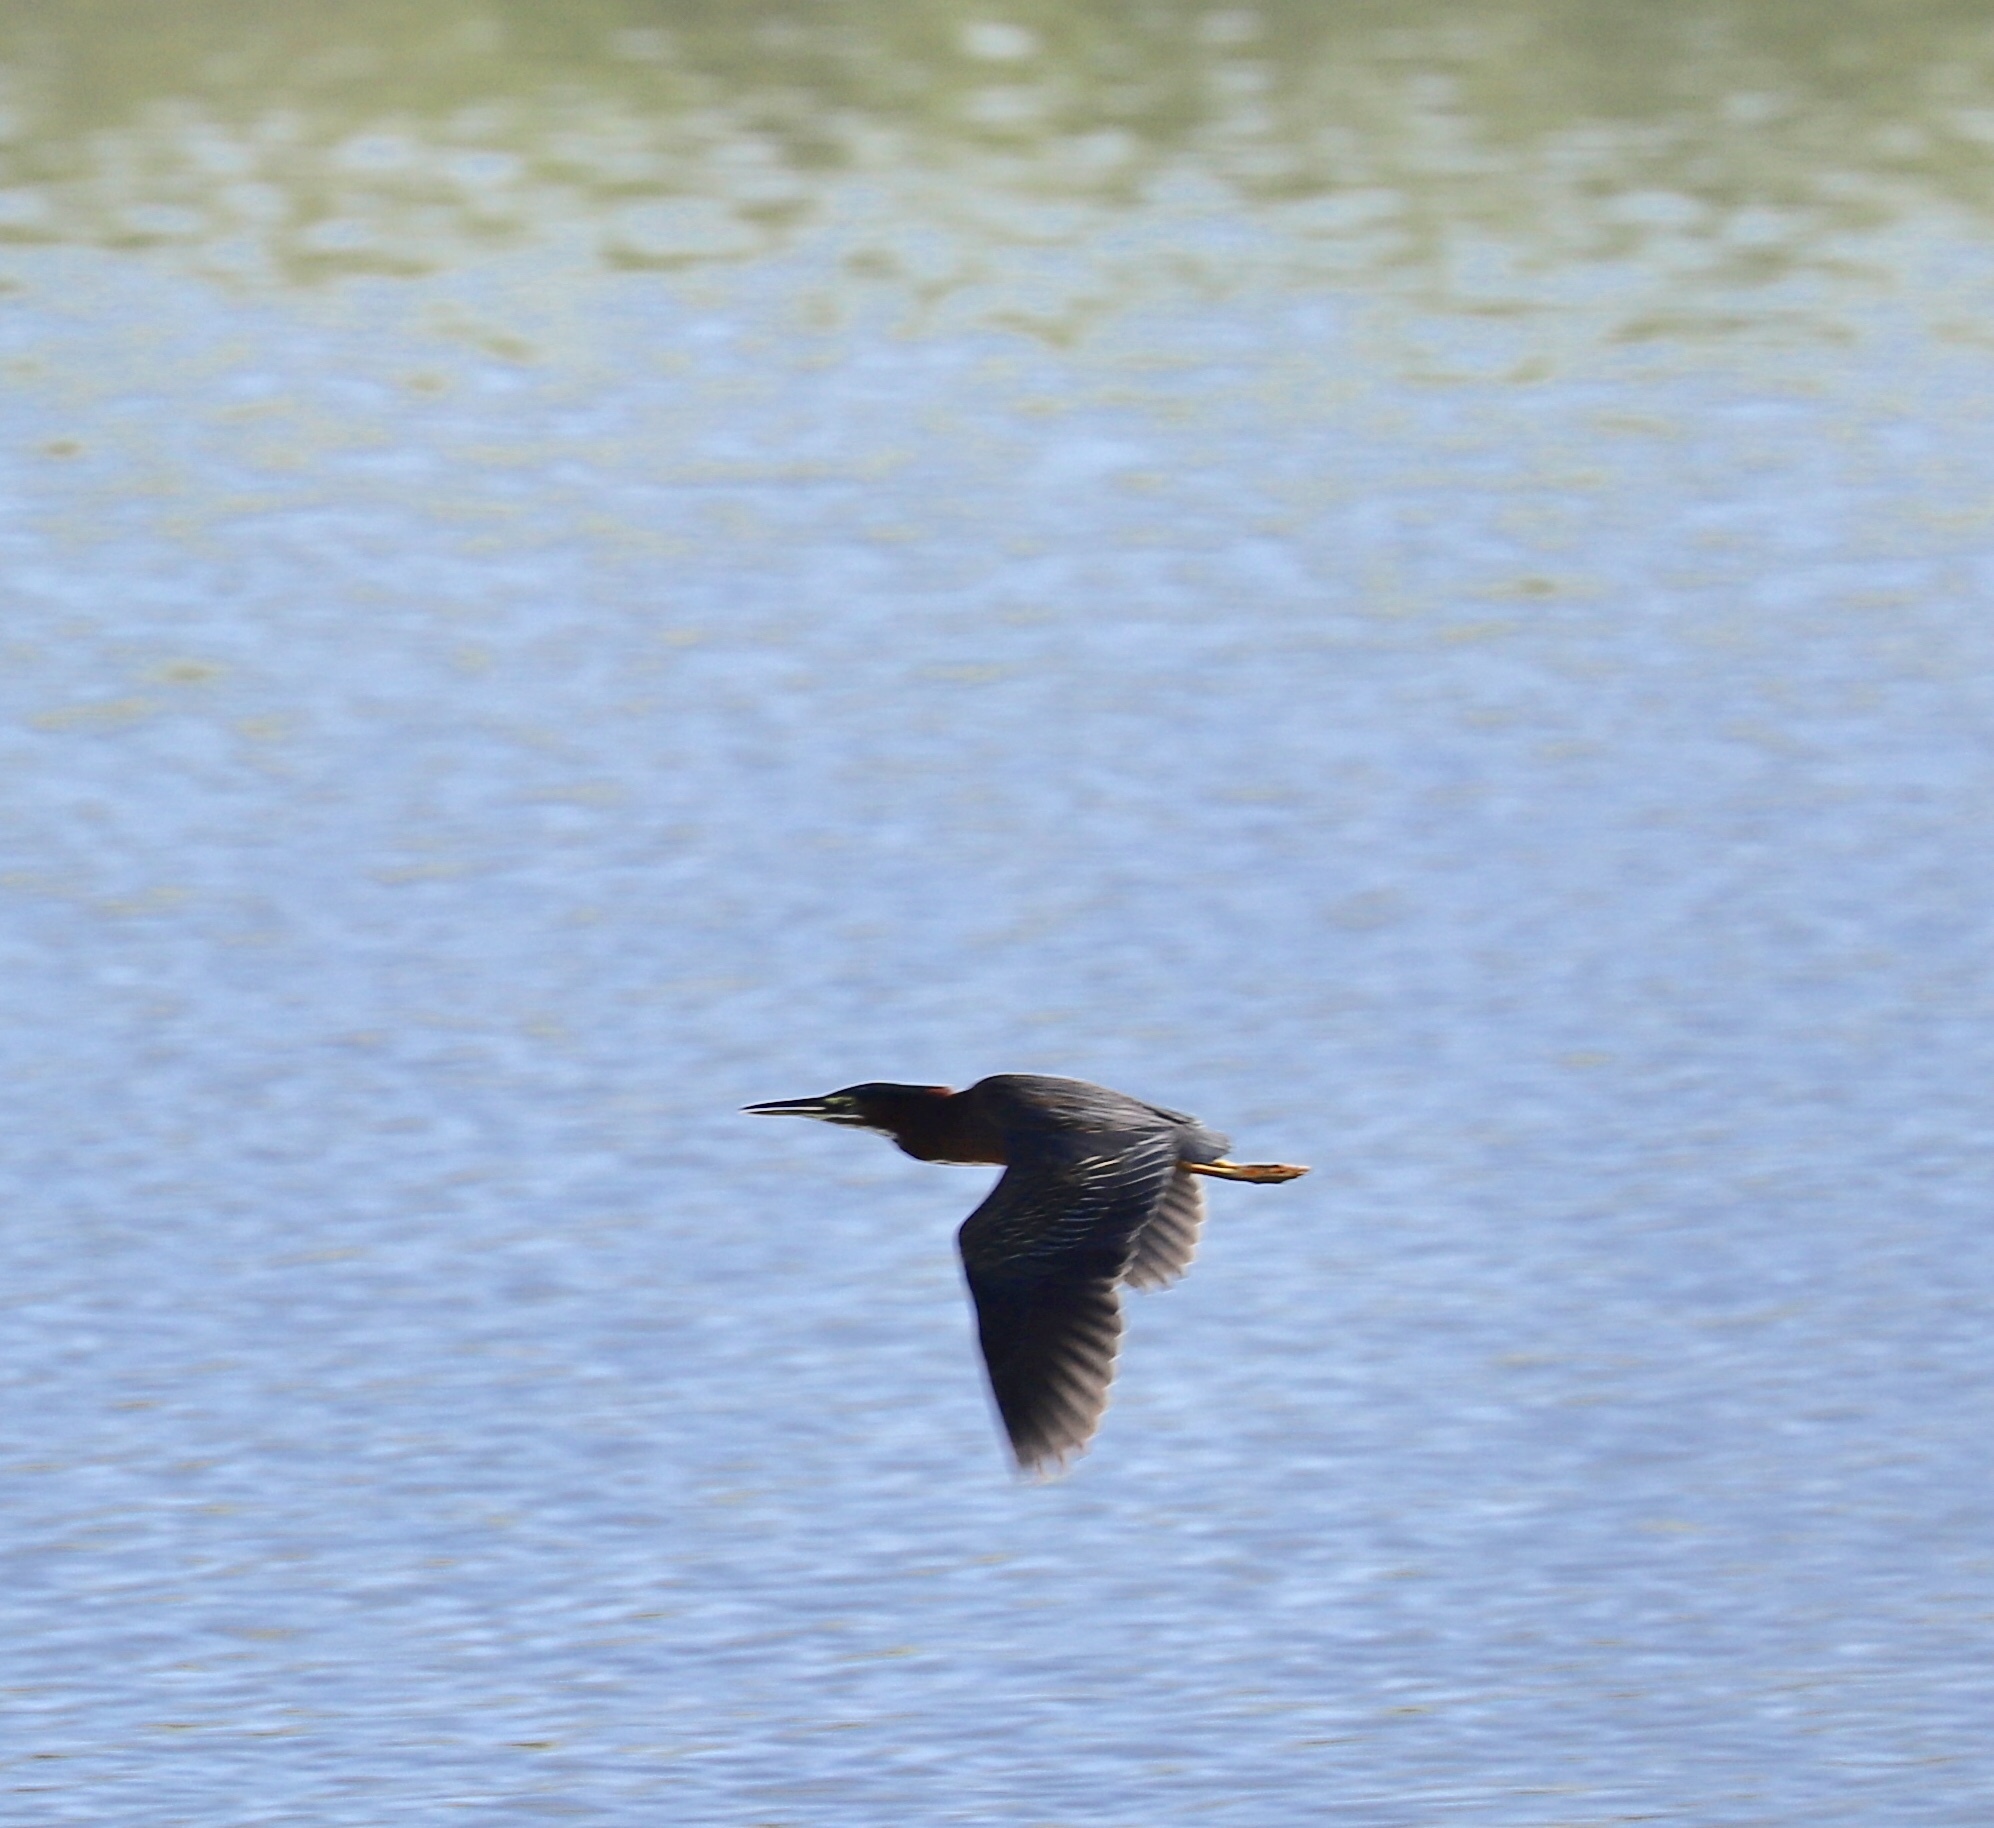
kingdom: Animalia
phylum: Chordata
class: Aves
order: Pelecaniformes
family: Ardeidae
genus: Butorides
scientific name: Butorides virescens
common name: Green heron
